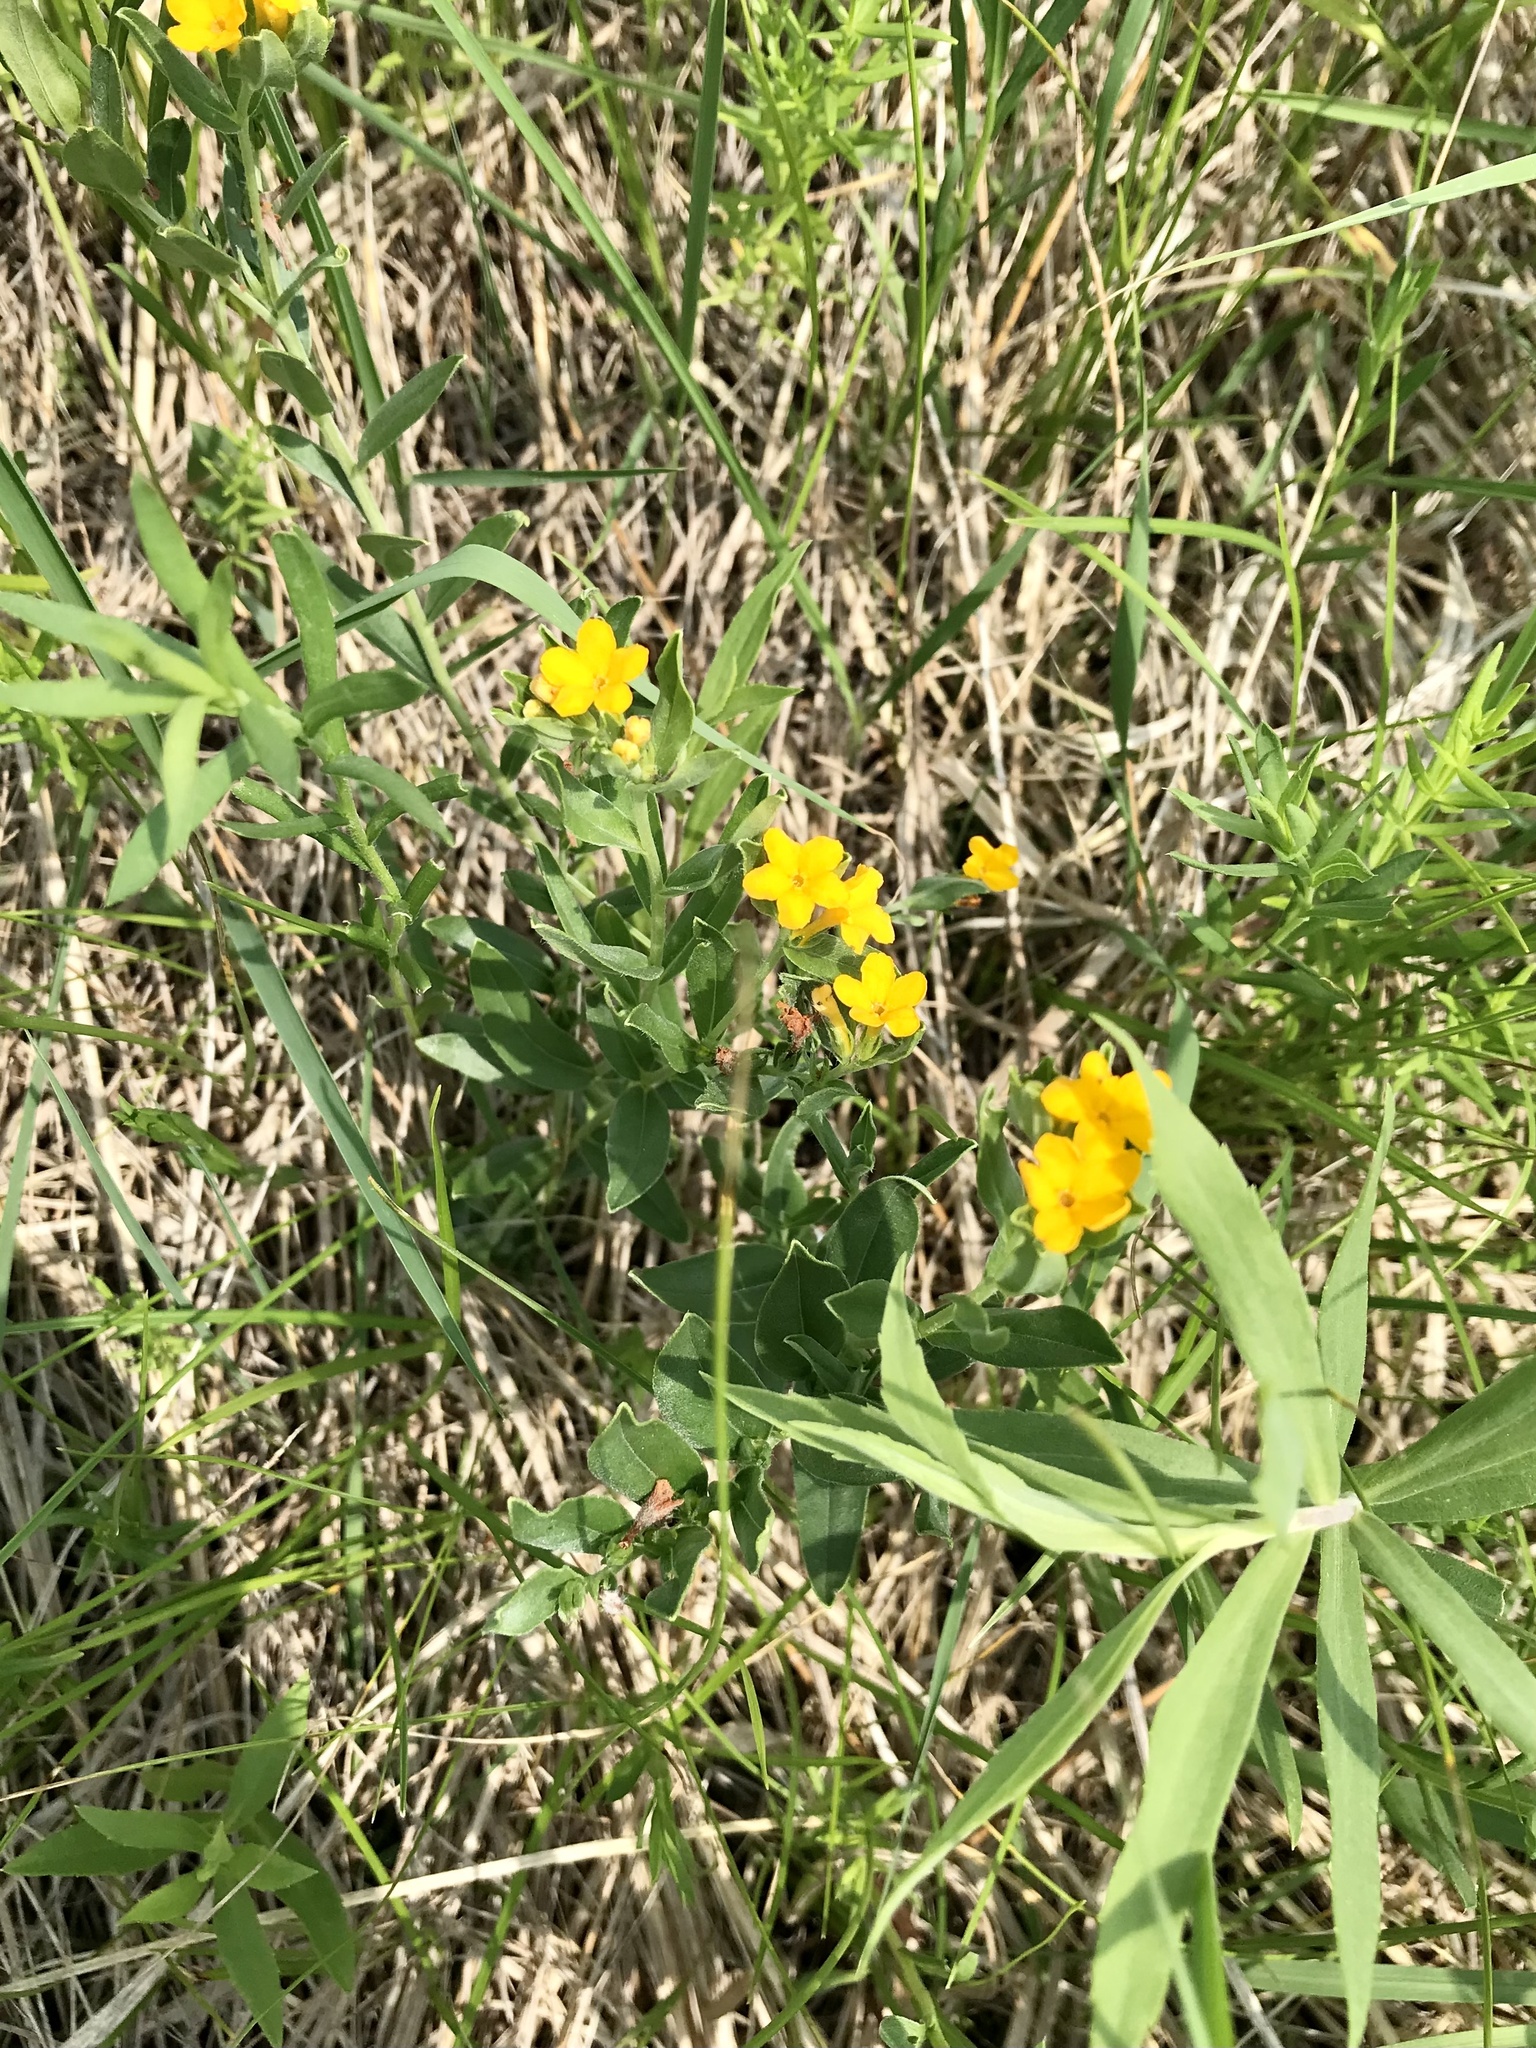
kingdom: Plantae
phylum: Tracheophyta
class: Magnoliopsida
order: Boraginales
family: Boraginaceae
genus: Lithospermum
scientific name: Lithospermum canescens
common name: Hoary puccoon
